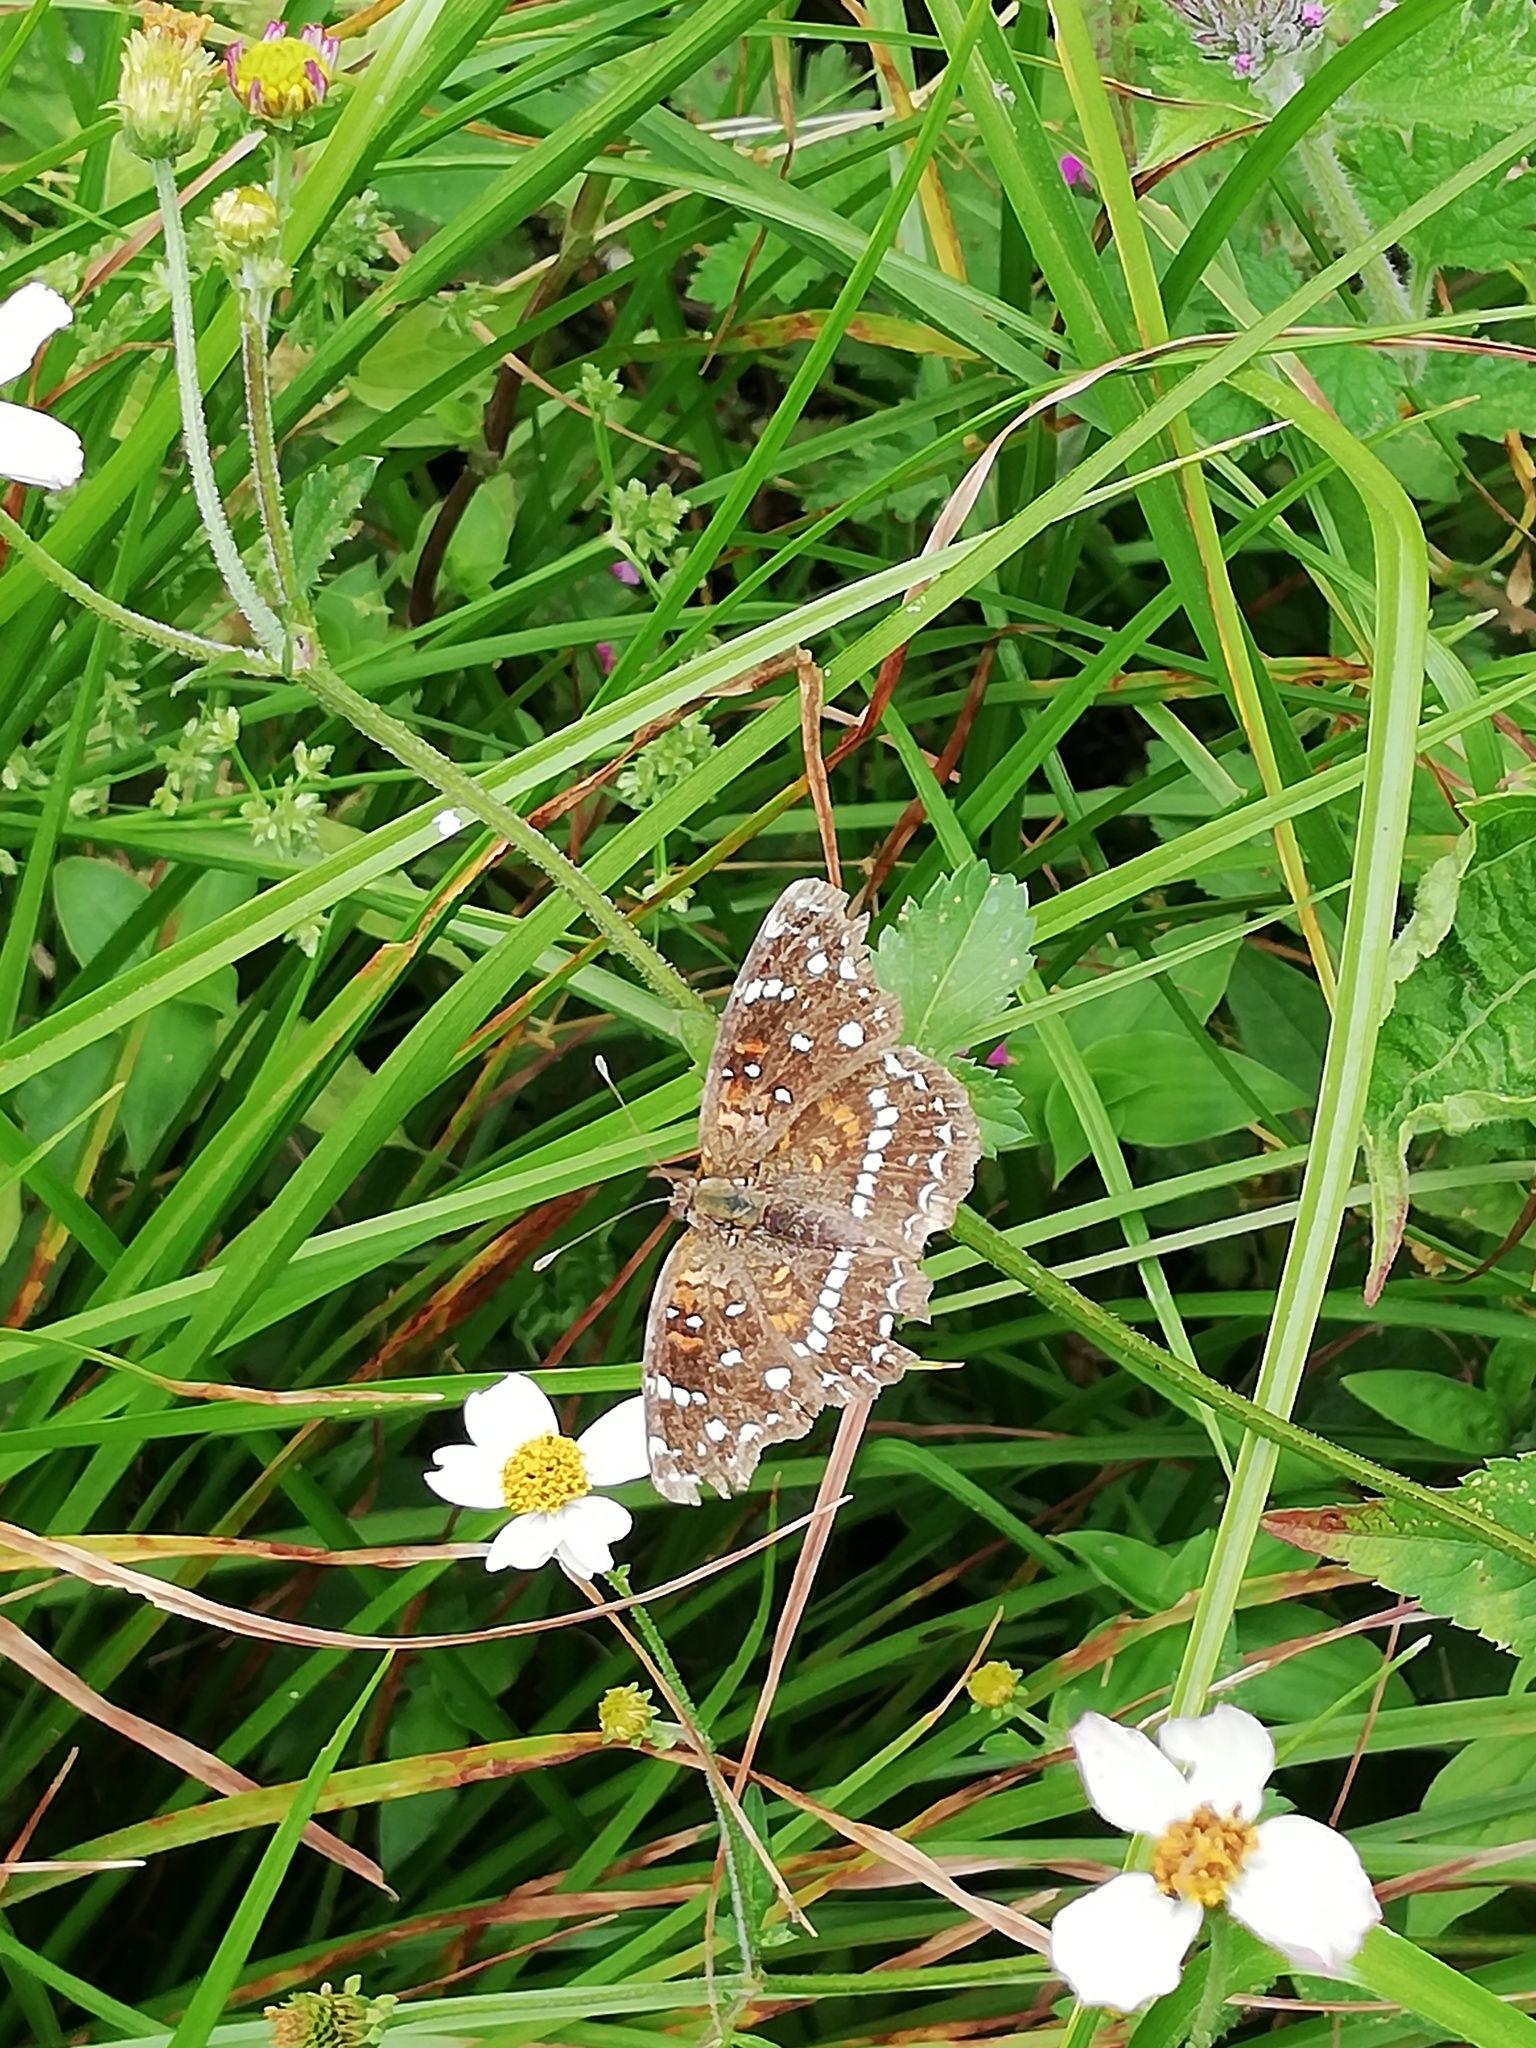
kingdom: Animalia
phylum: Arthropoda
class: Insecta
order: Lepidoptera
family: Nymphalidae
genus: Anthanassa
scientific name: Anthanassa texana
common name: Texan crescent
